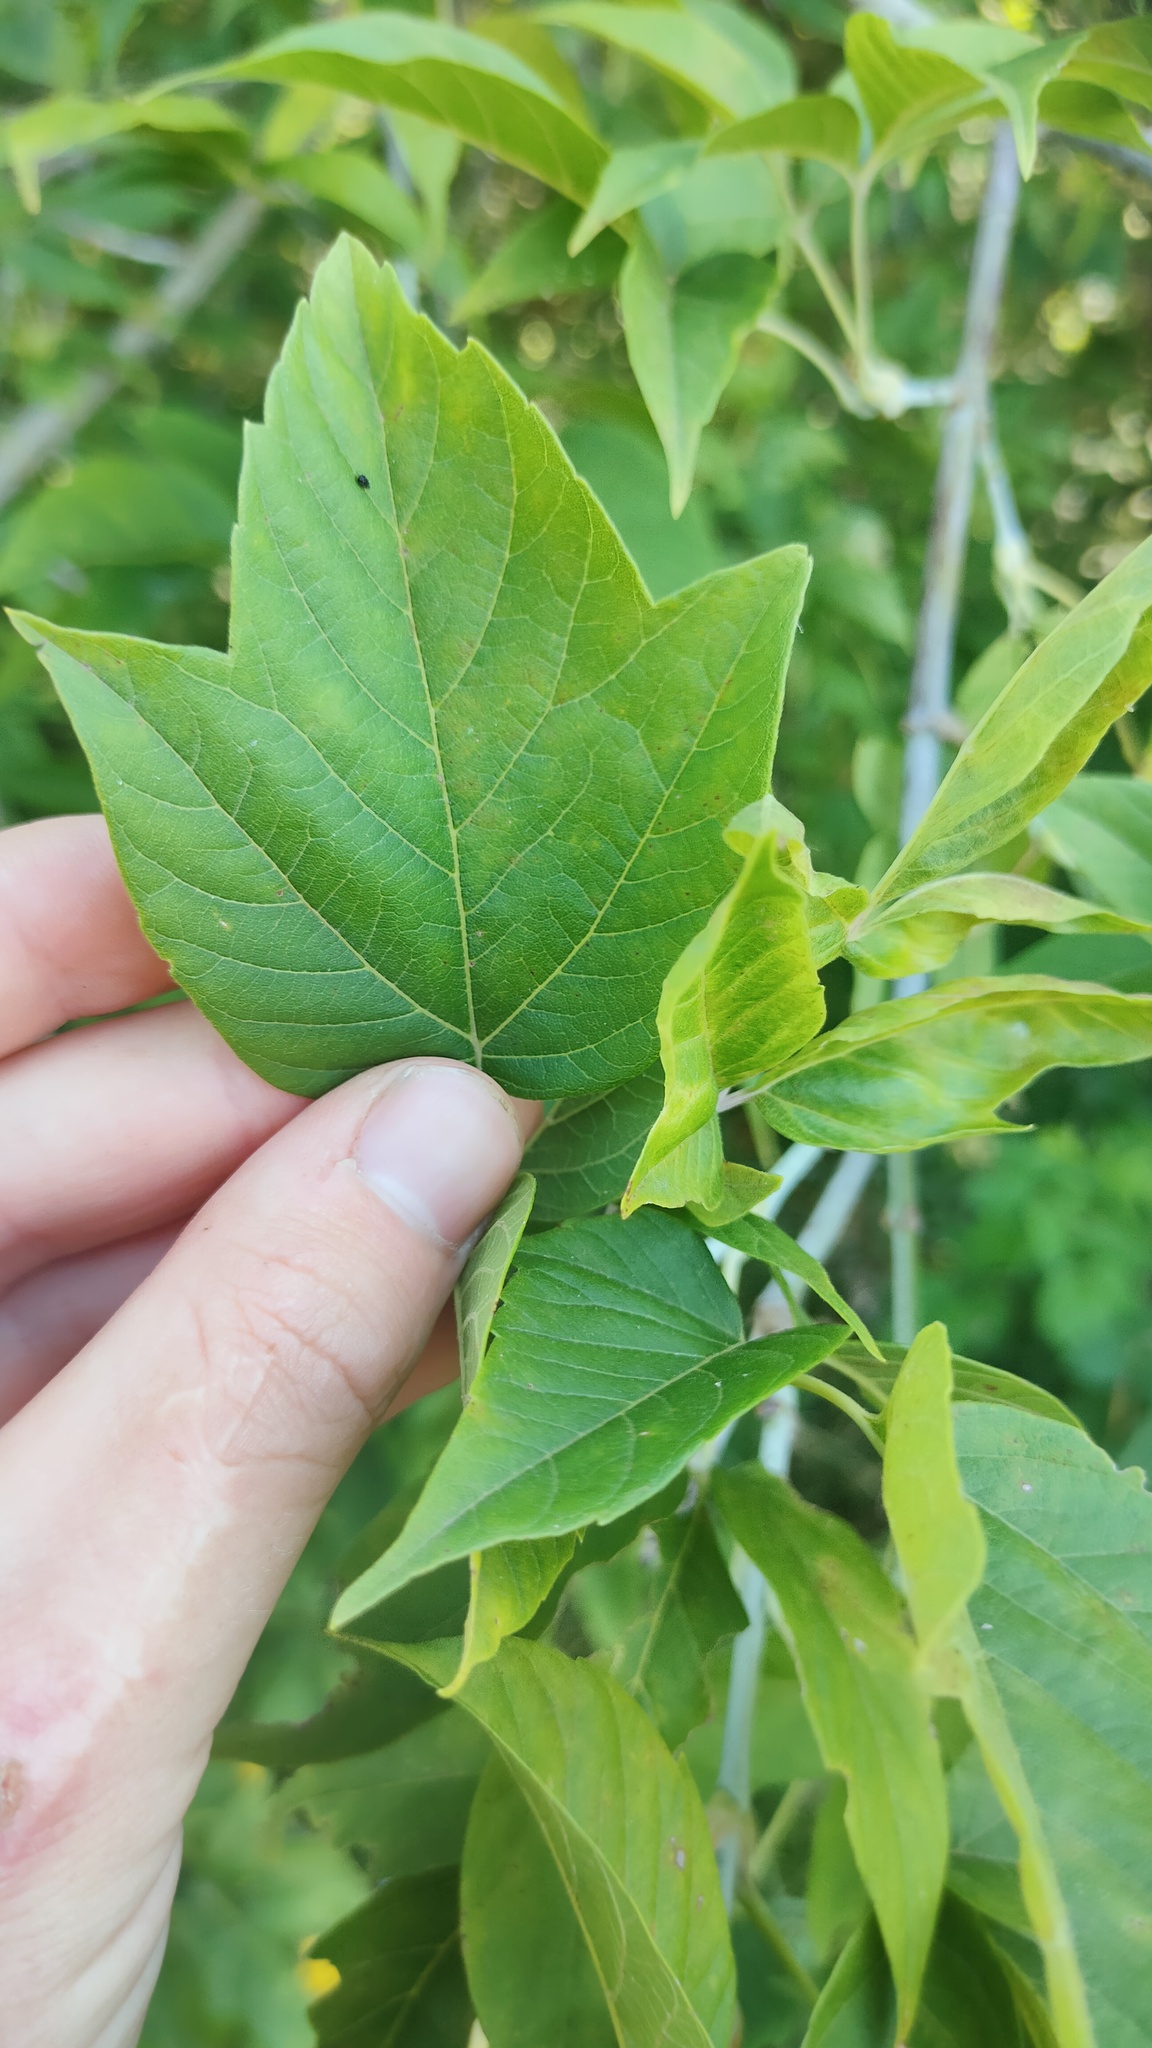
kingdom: Plantae
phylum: Tracheophyta
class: Magnoliopsida
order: Sapindales
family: Sapindaceae
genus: Acer
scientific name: Acer negundo
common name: Ashleaf maple
